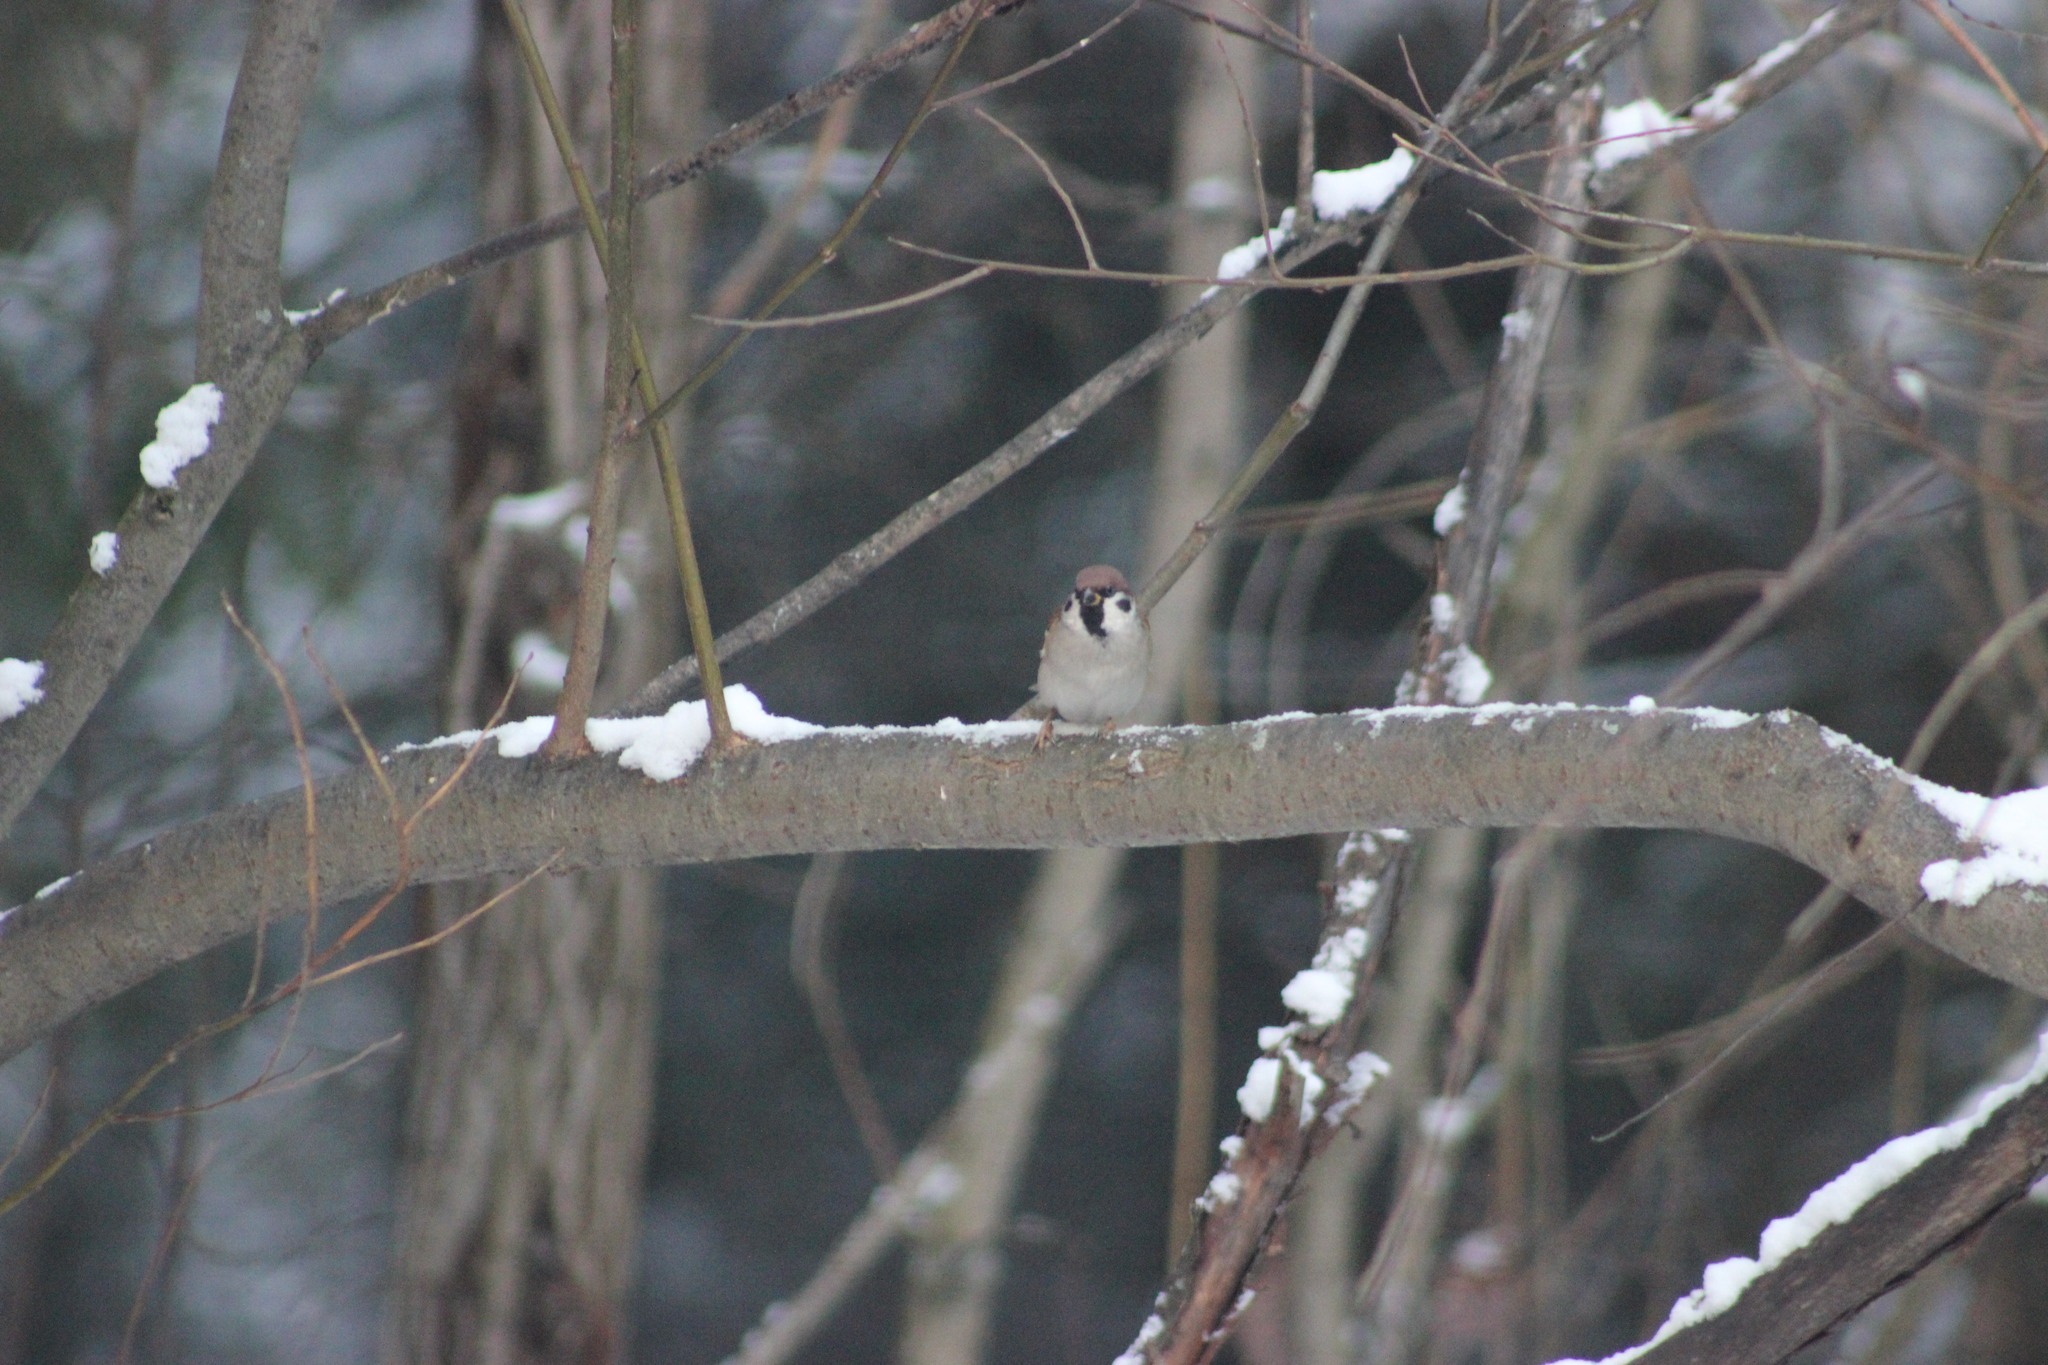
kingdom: Animalia
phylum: Chordata
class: Aves
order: Passeriformes
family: Passeridae
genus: Passer
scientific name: Passer montanus
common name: Eurasian tree sparrow
